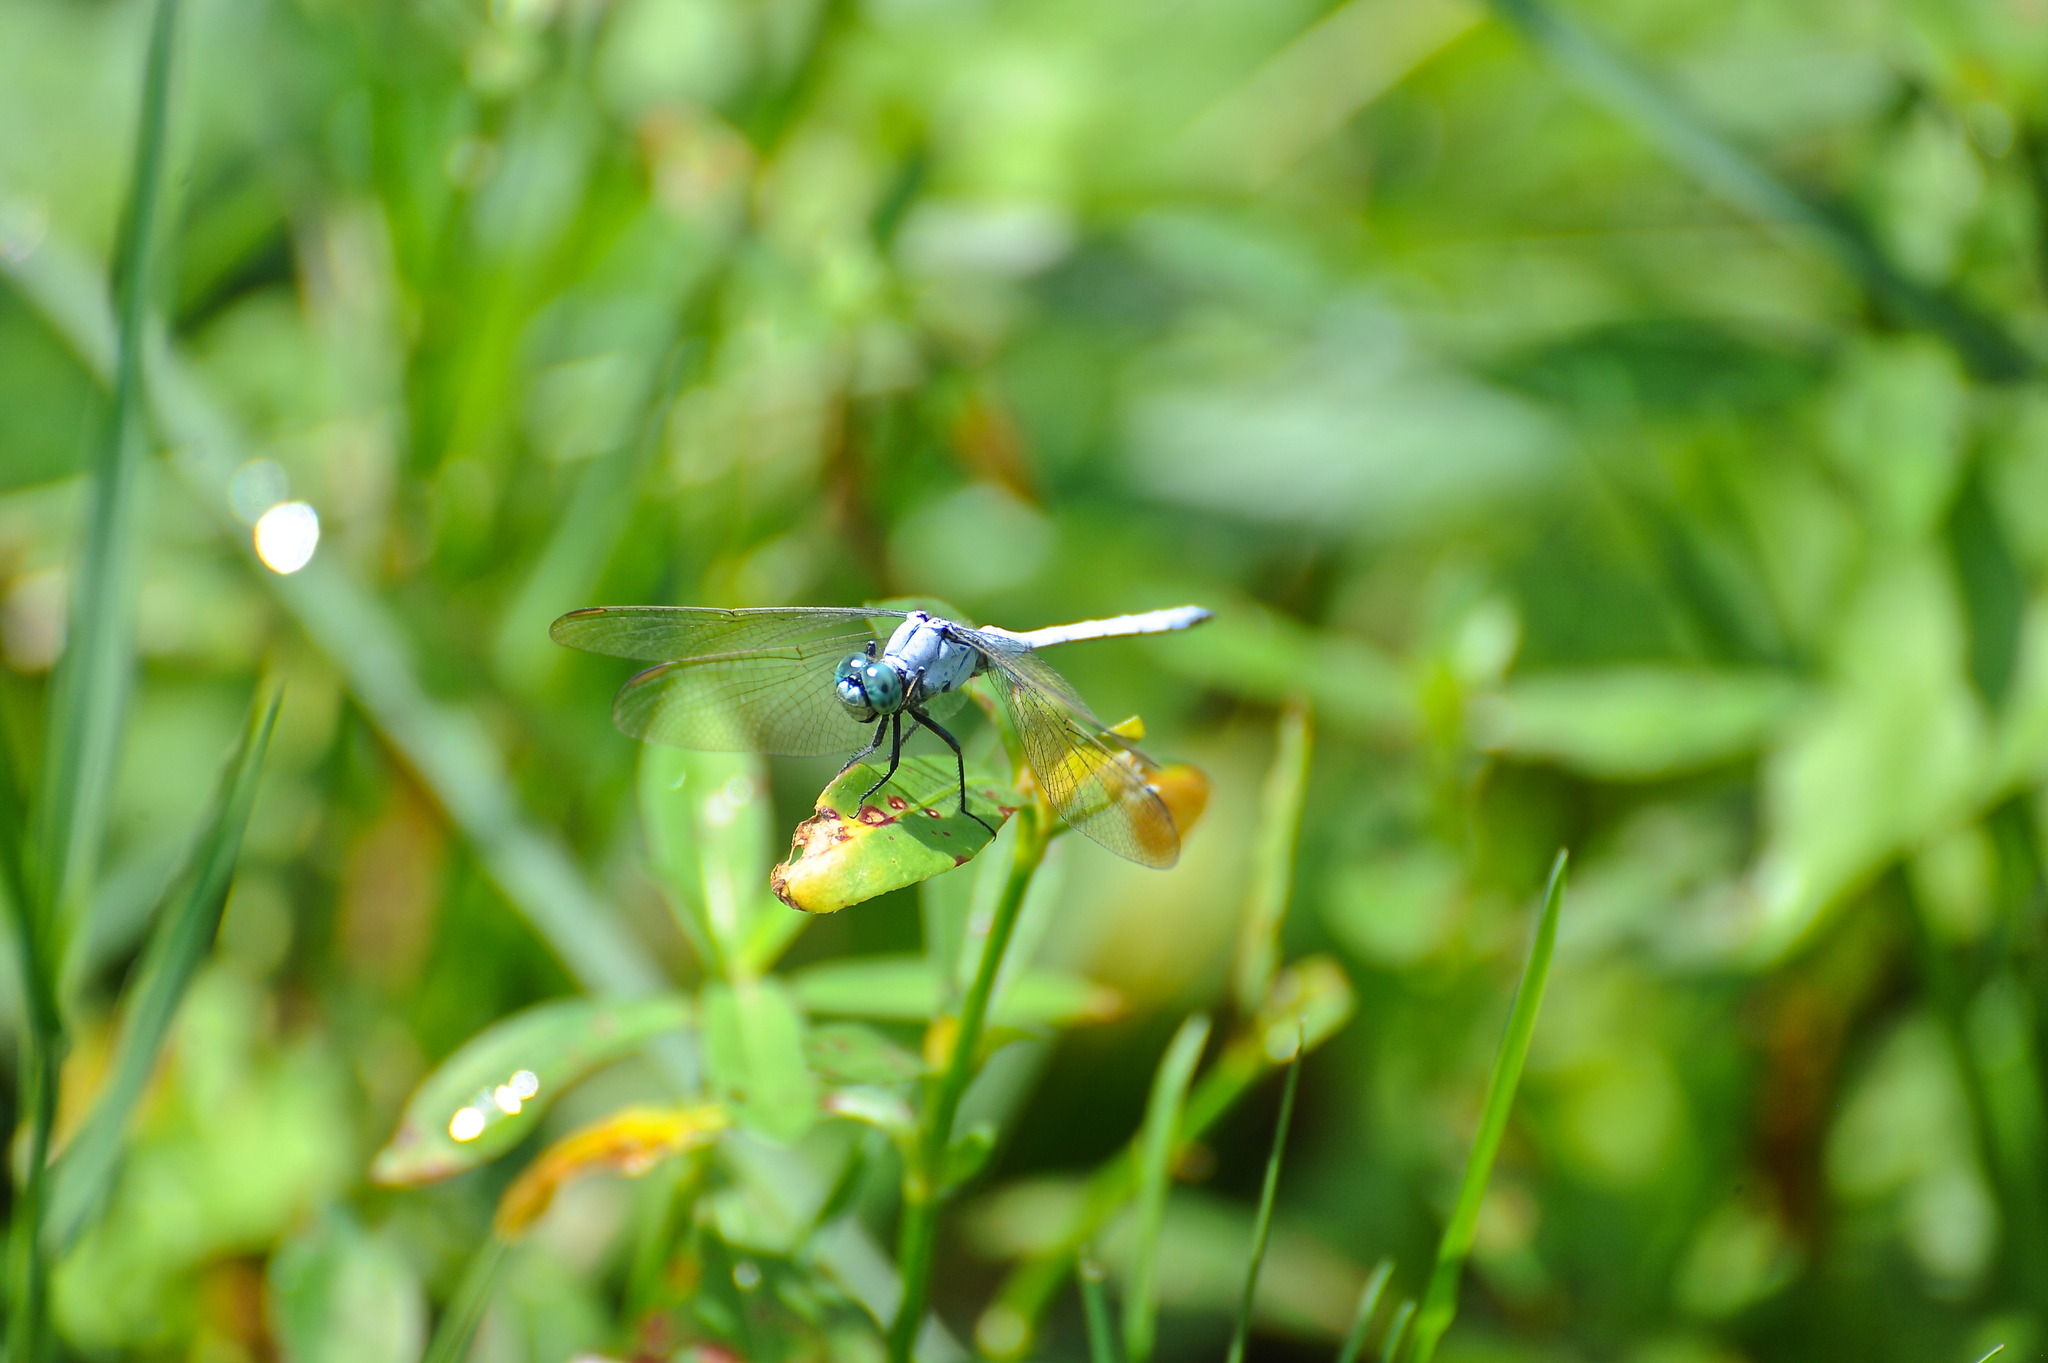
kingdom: Animalia
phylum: Arthropoda
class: Insecta
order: Odonata
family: Libellulidae
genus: Orthetrum
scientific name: Orthetrum luzonicum
